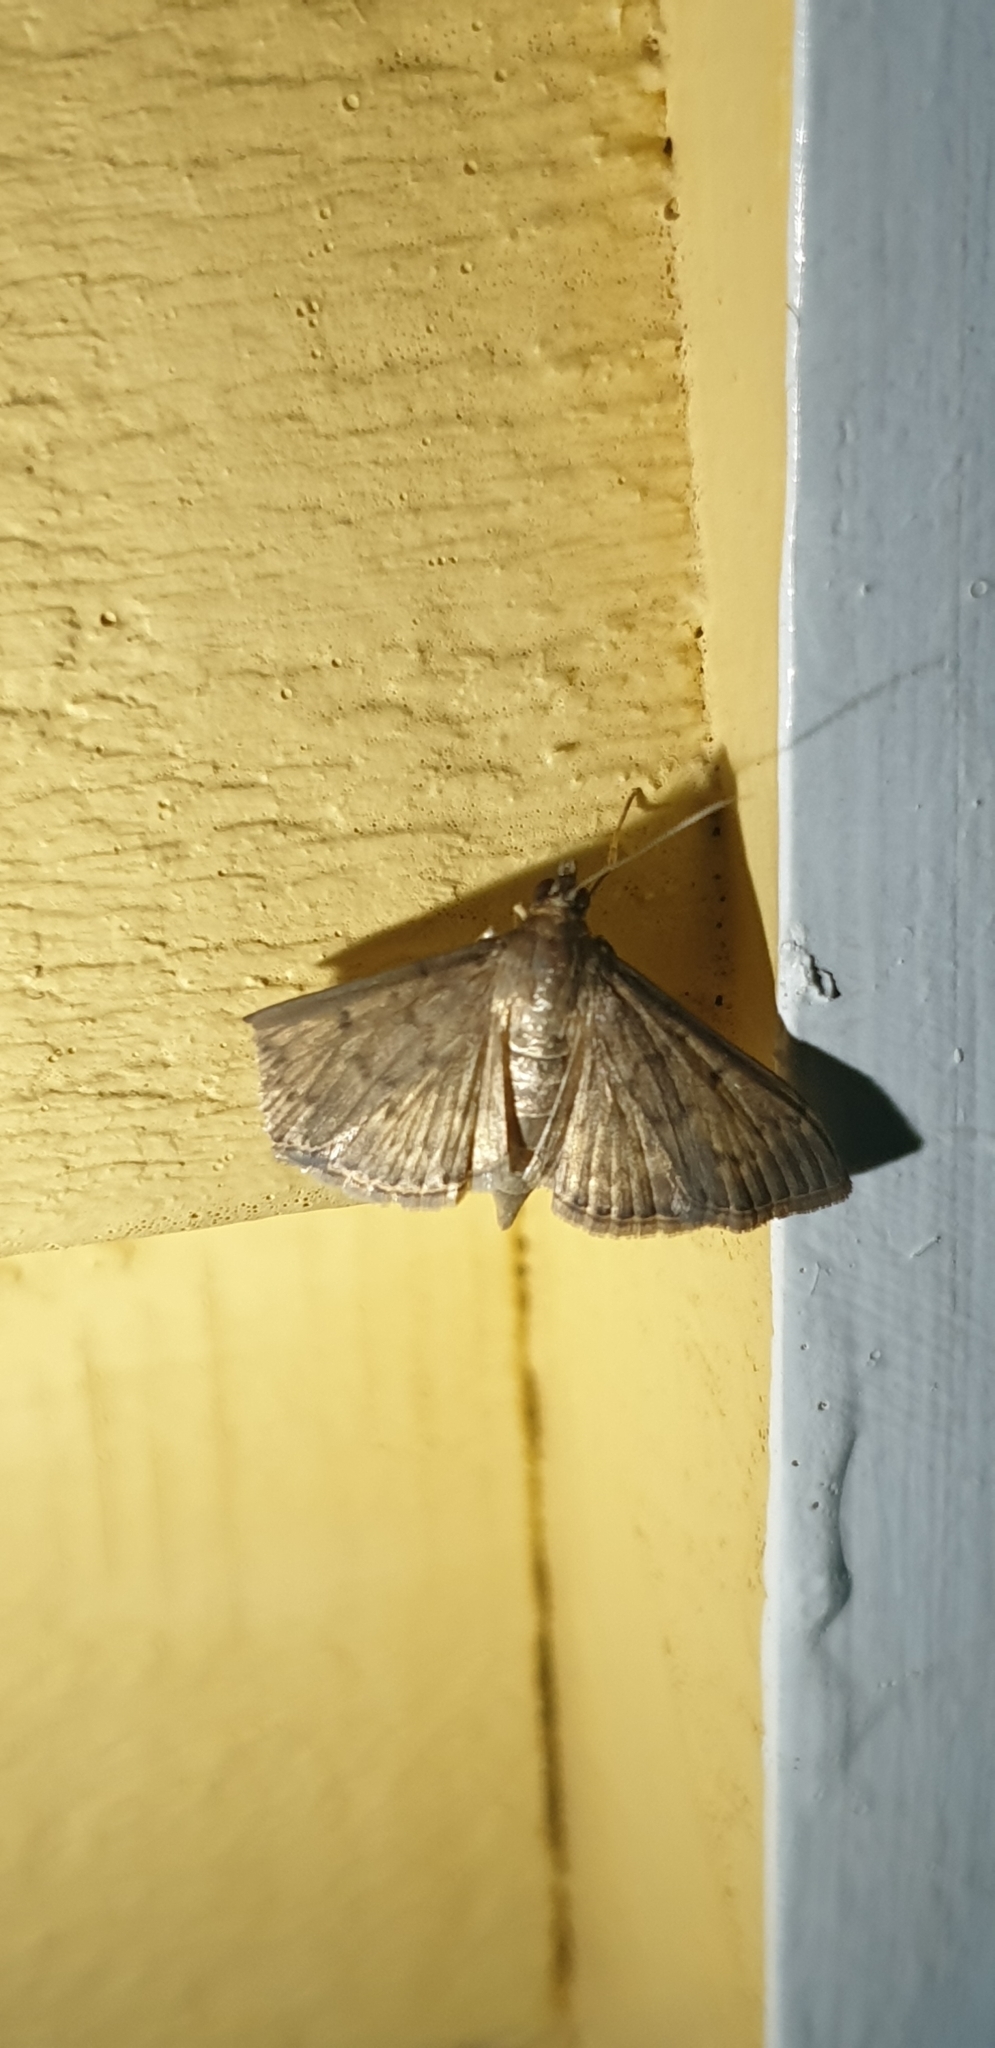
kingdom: Animalia
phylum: Arthropoda
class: Insecta
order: Lepidoptera
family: Crambidae
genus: Herpetogramma
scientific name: Herpetogramma licarsisalis
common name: Grass webworm
